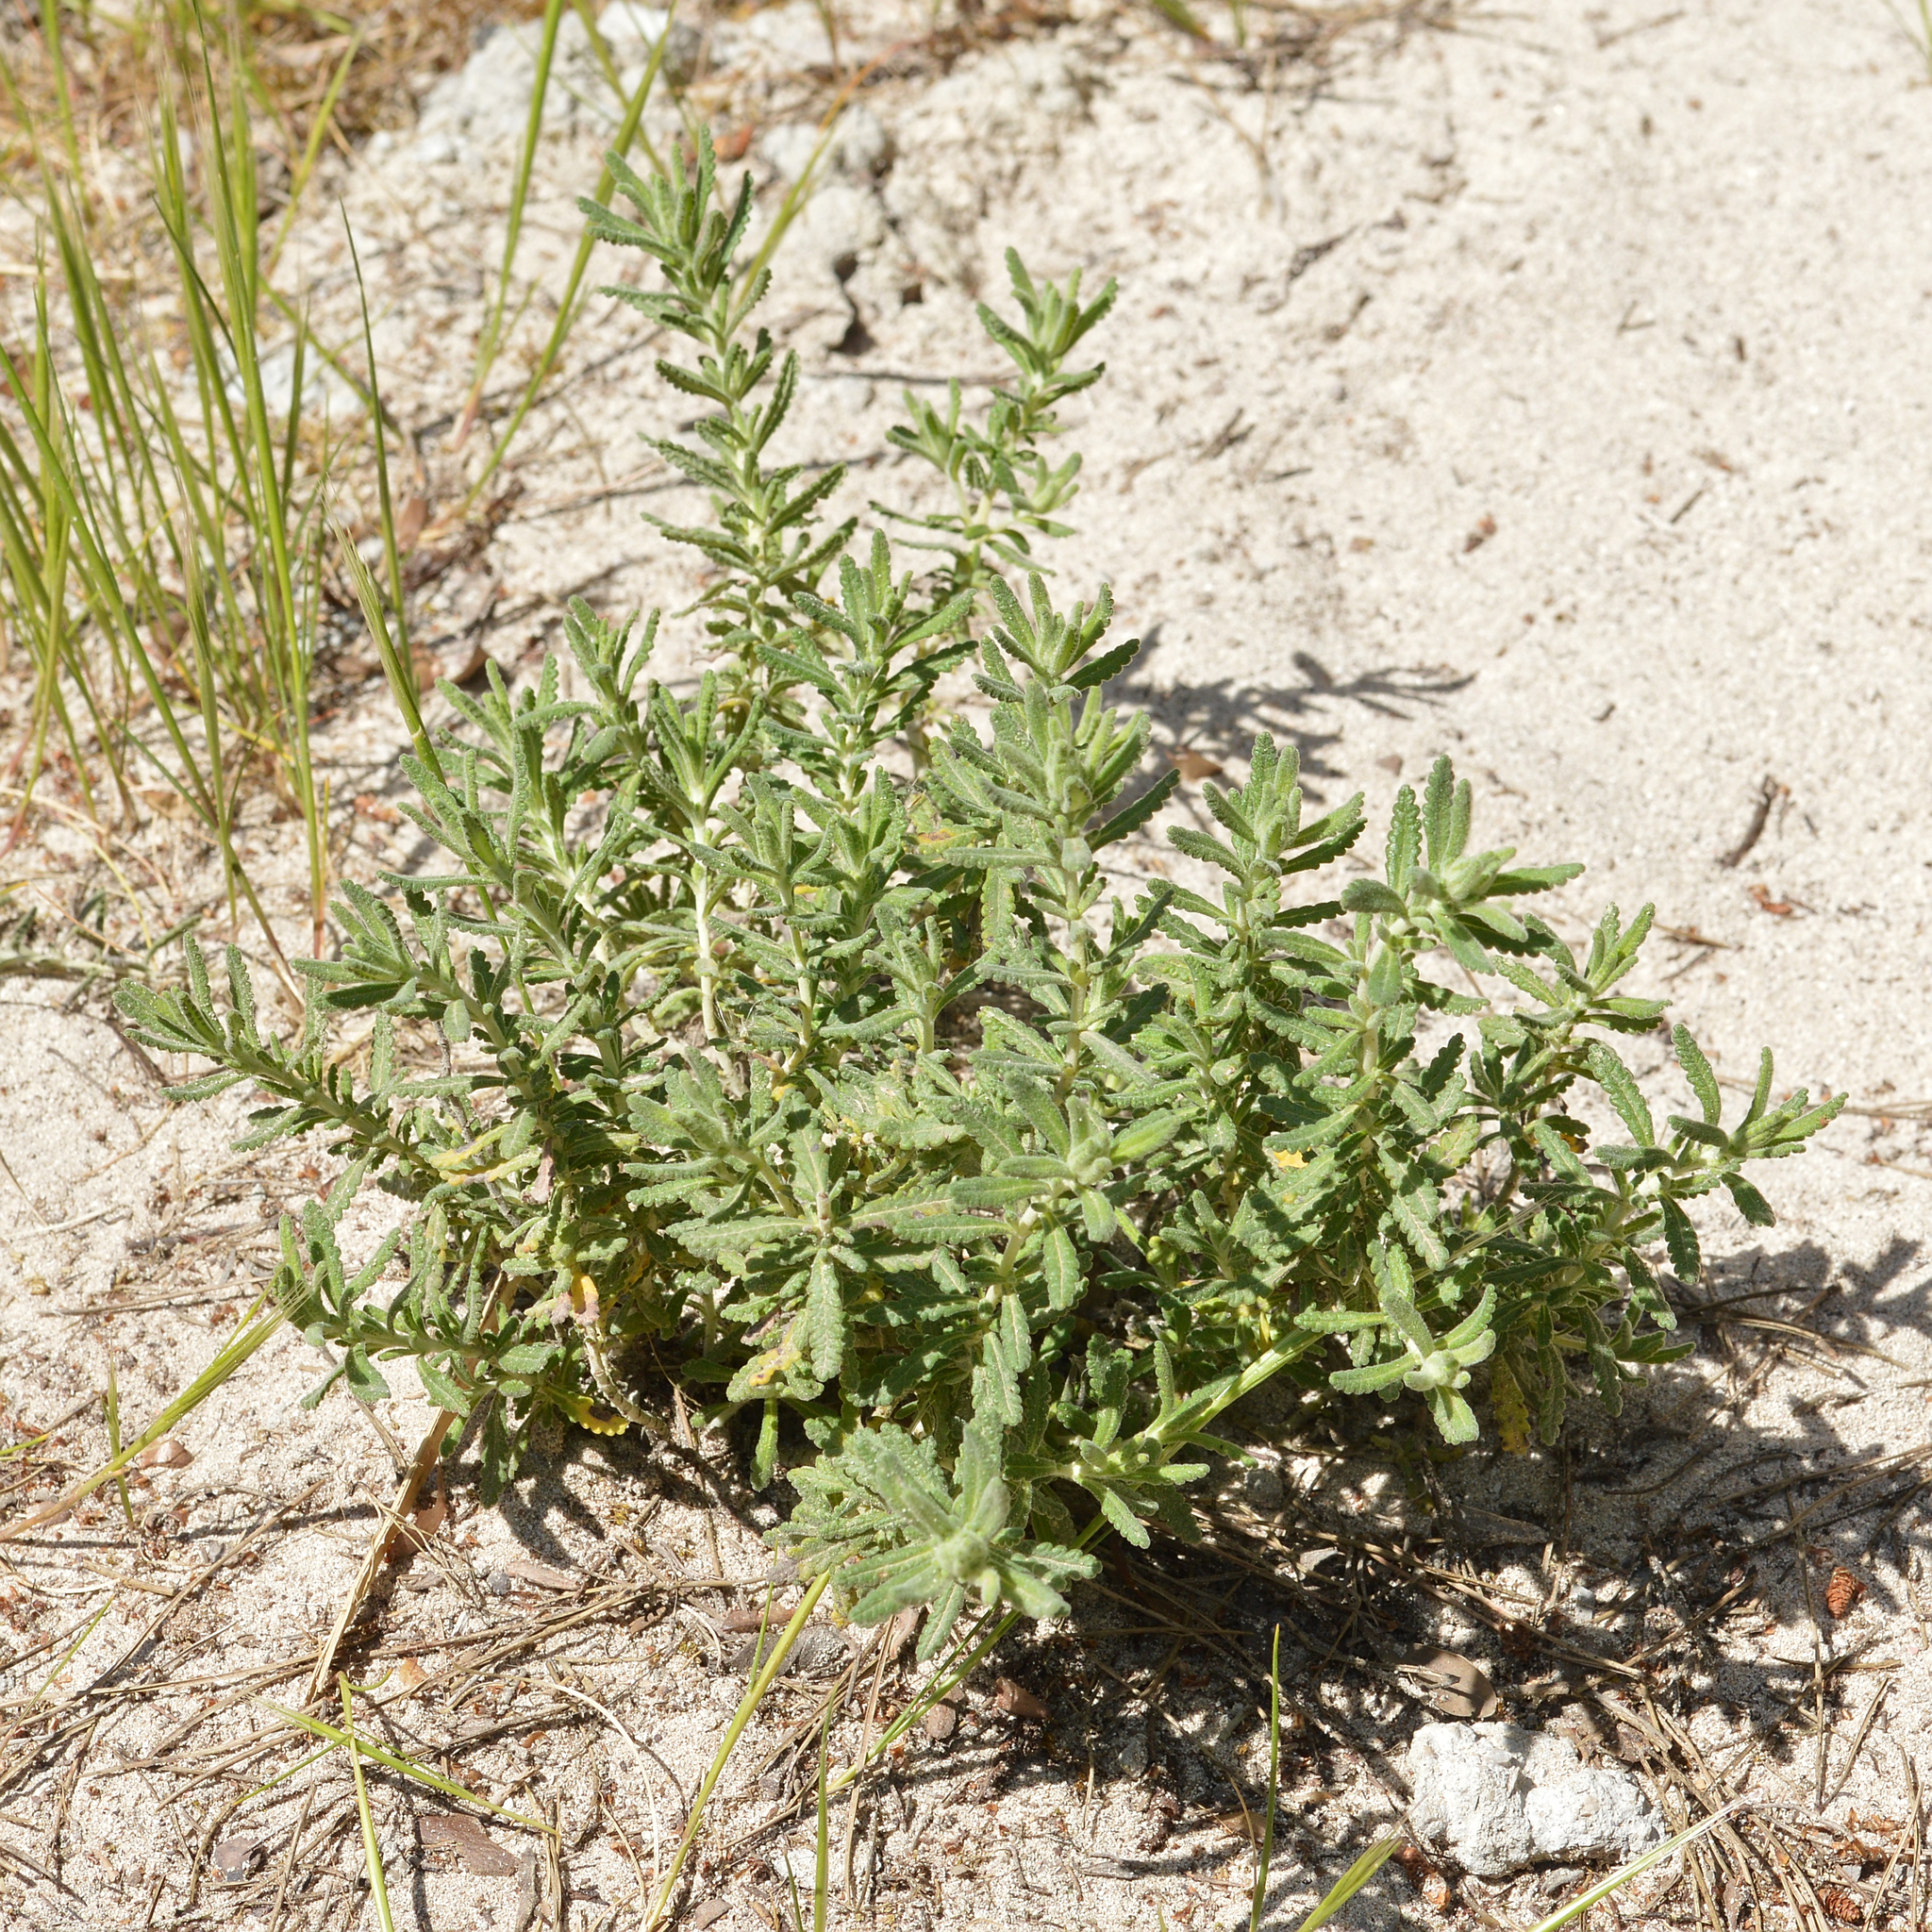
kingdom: Plantae
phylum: Tracheophyta
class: Magnoliopsida
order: Lamiales
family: Lamiaceae
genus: Teucrium
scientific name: Teucrium dunense
